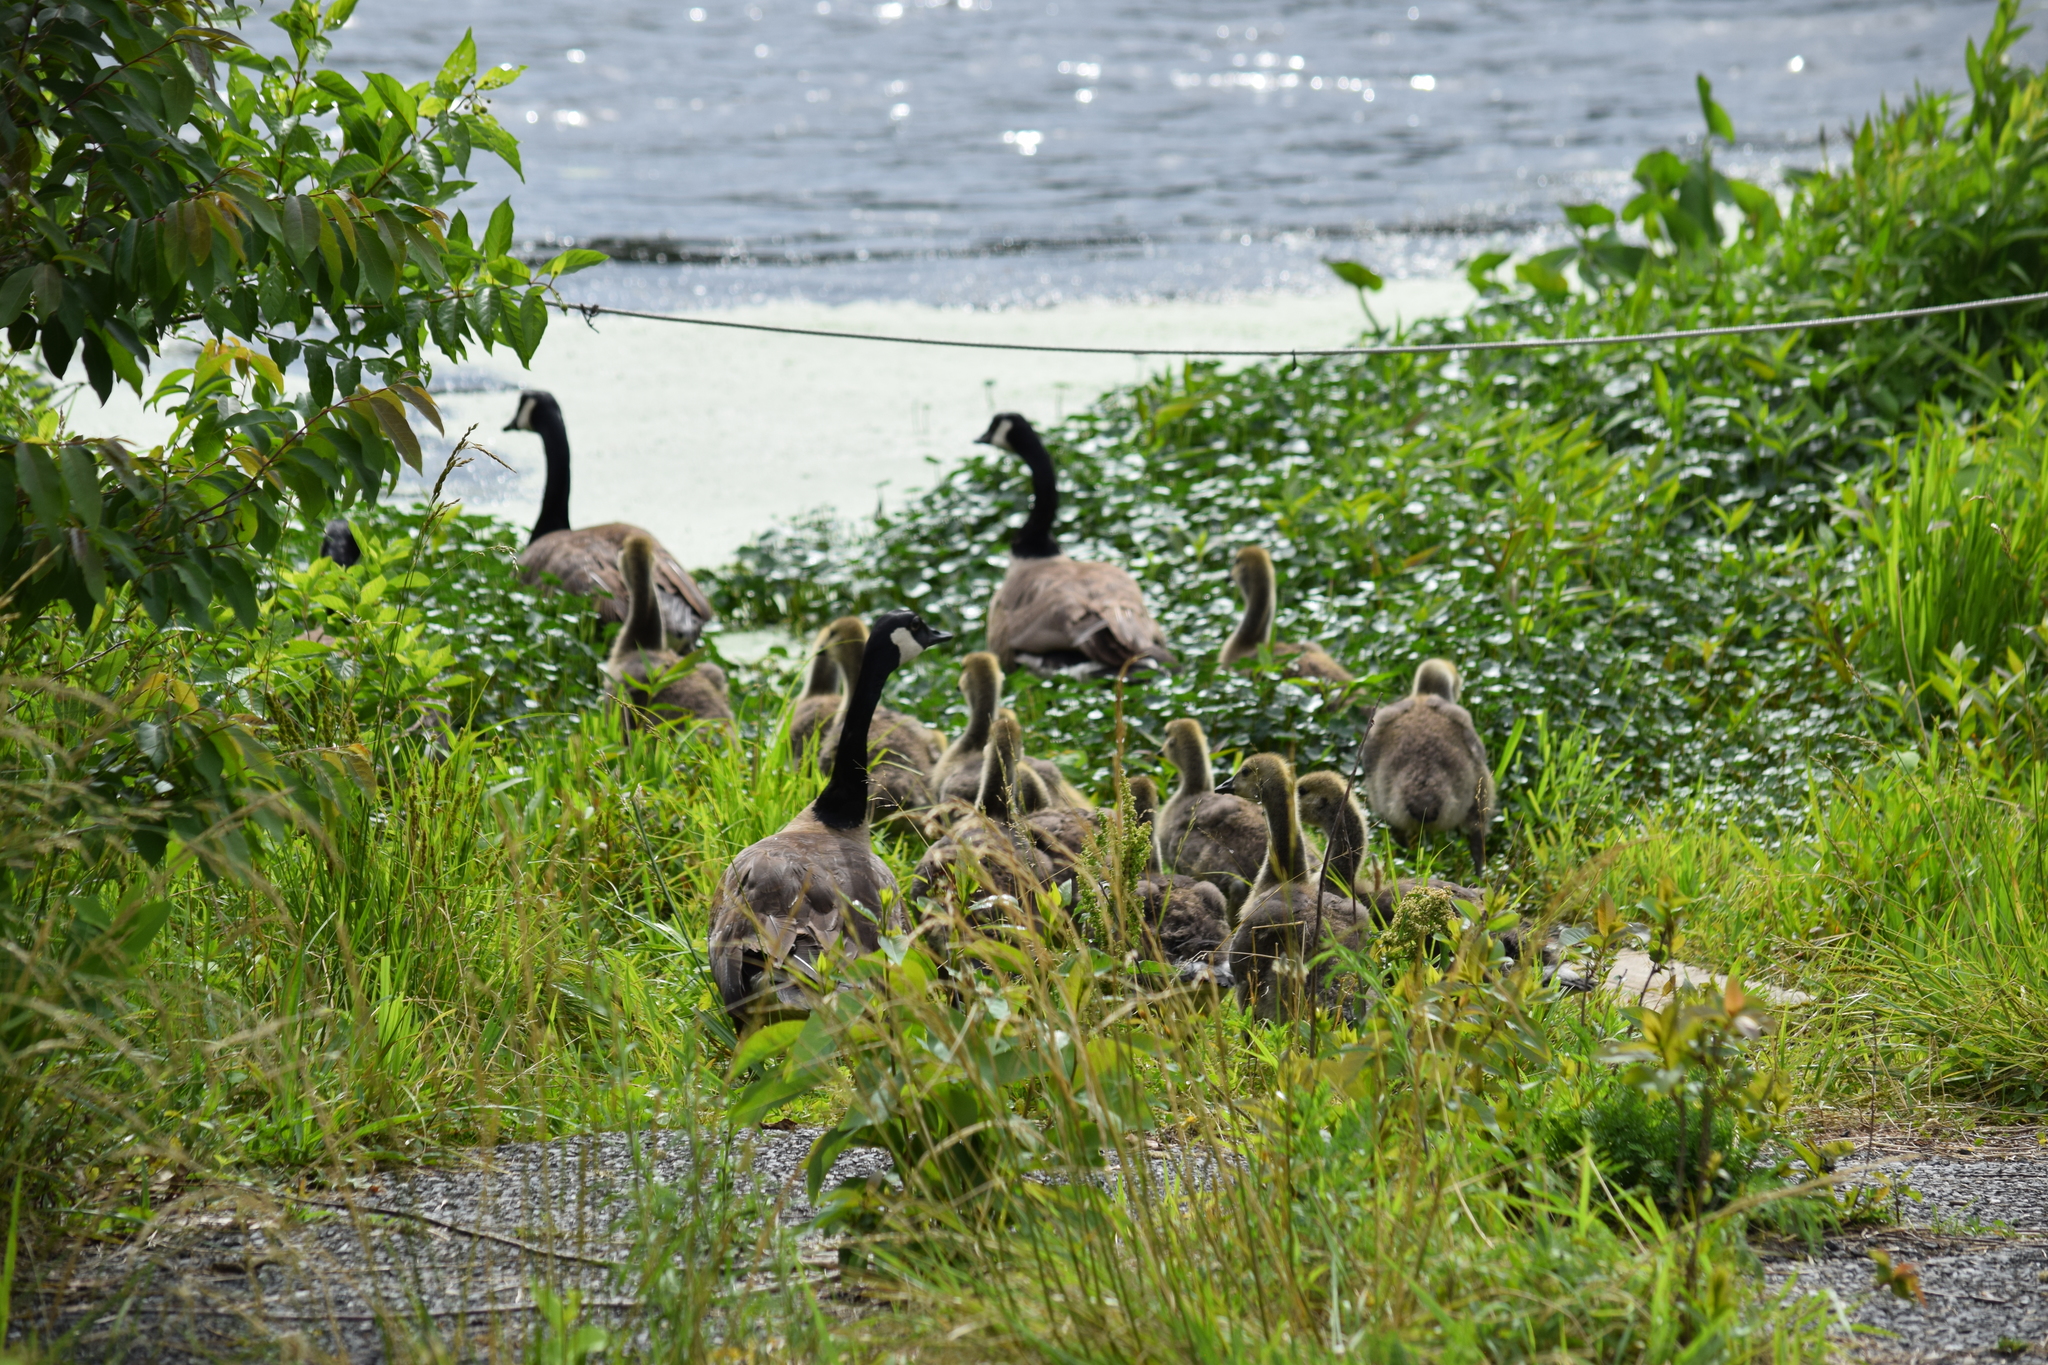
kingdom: Animalia
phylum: Chordata
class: Aves
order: Anseriformes
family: Anatidae
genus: Branta
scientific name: Branta canadensis
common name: Canada goose
